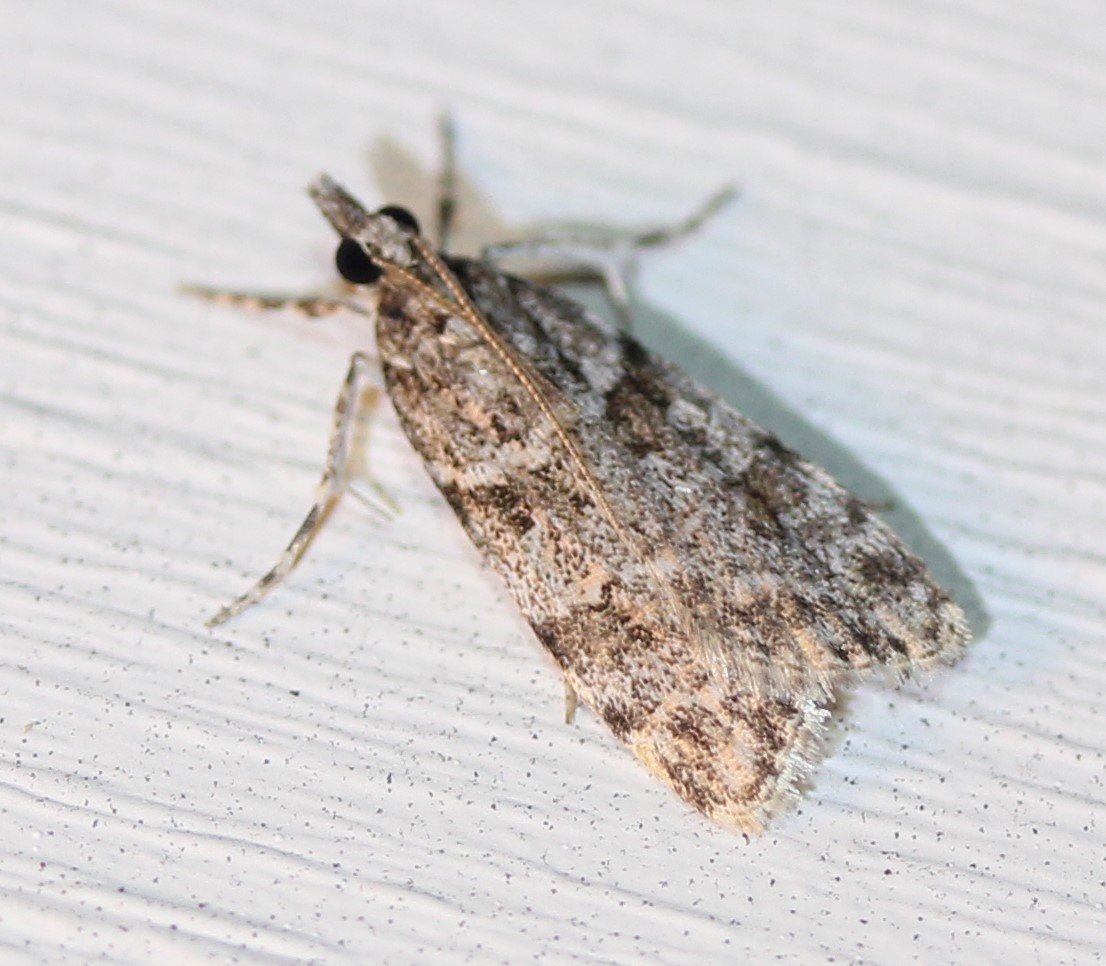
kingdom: Animalia
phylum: Arthropoda
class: Insecta
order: Lepidoptera
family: Crambidae
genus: Scoparia
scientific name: Scoparia biplagialis
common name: Double-striped scoparia moth
